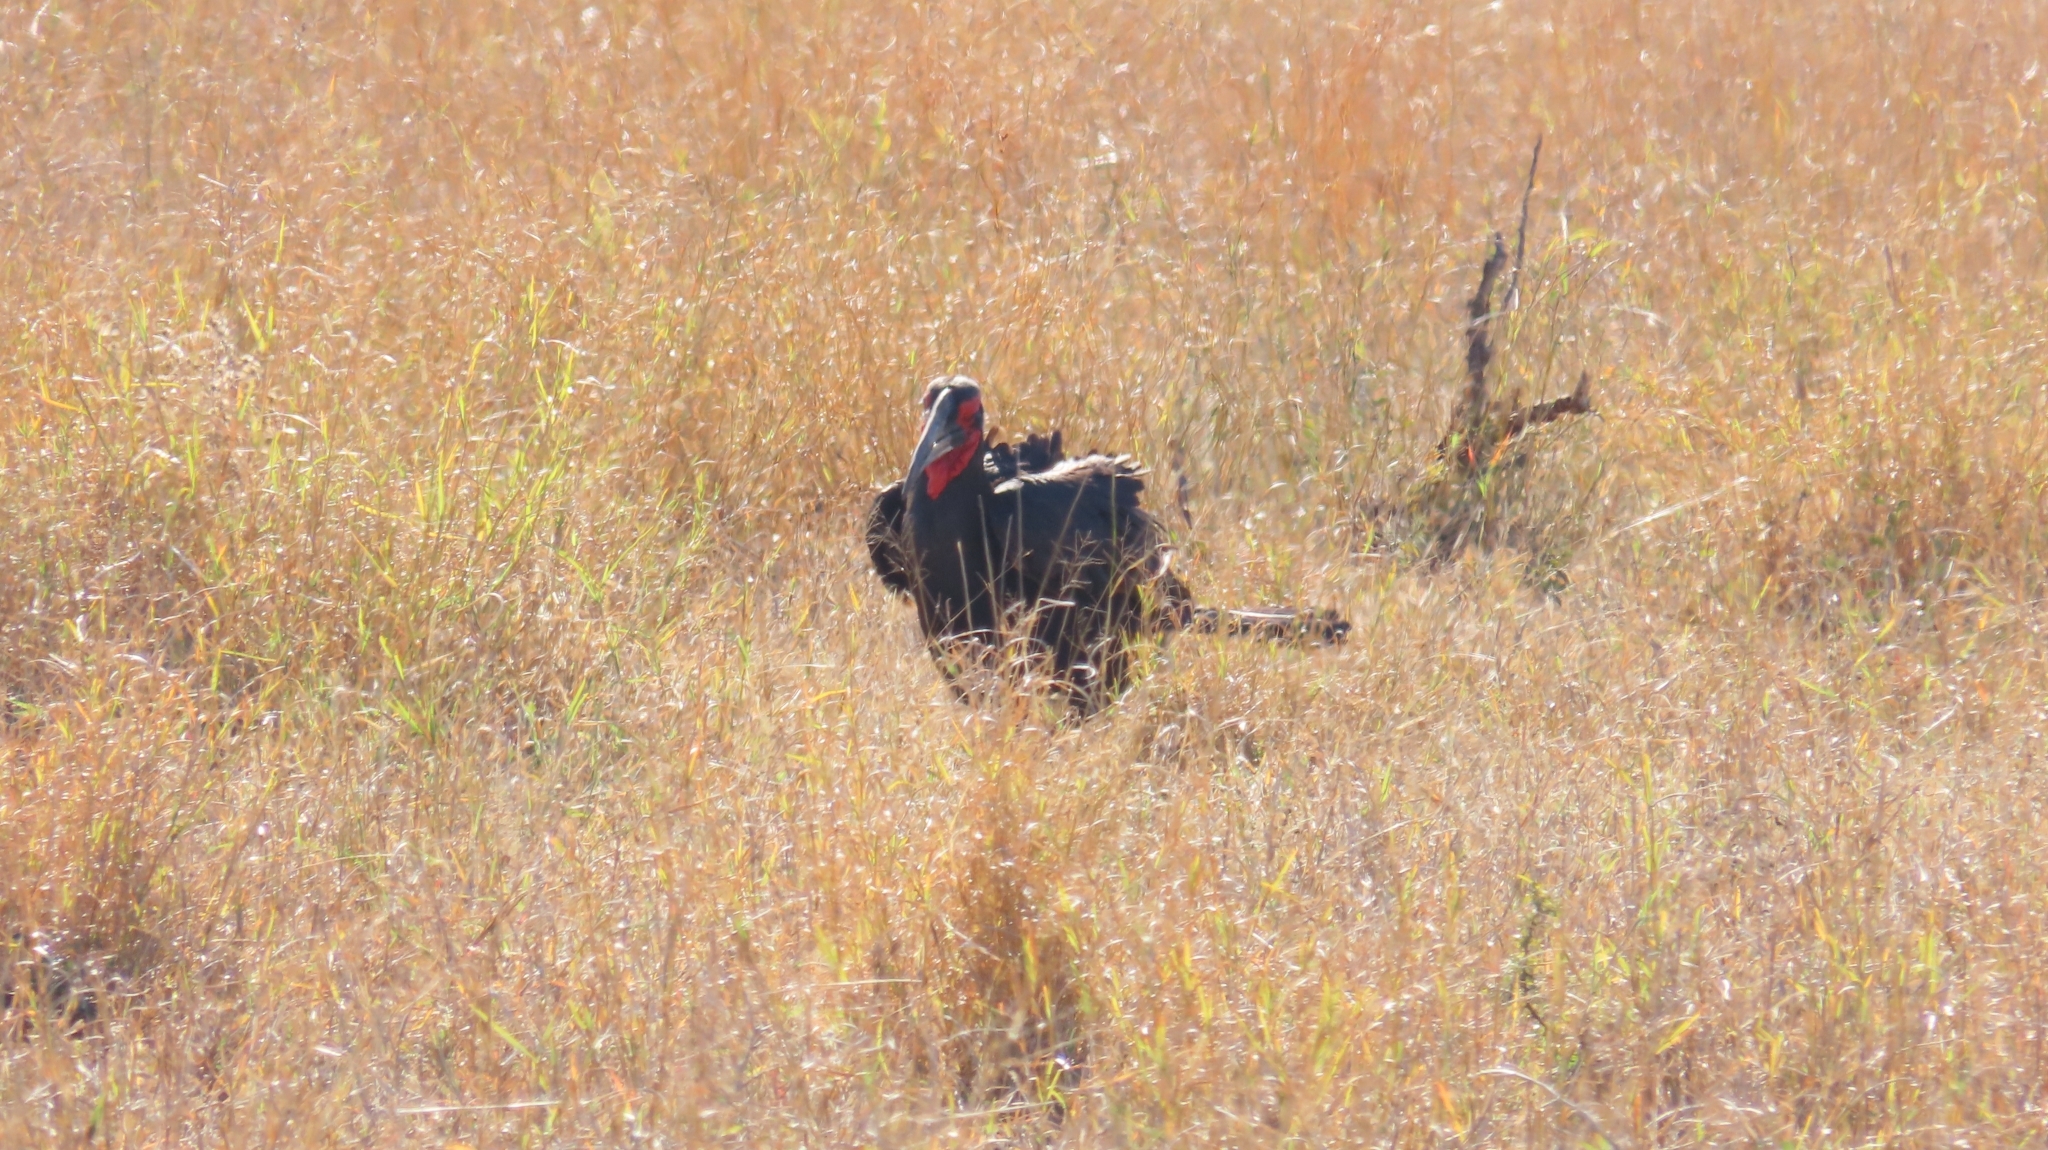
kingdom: Animalia
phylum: Chordata
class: Aves
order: Bucerotiformes
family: Bucorvidae
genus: Bucorvus
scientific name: Bucorvus leadbeateri
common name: Southern ground-hornbill
